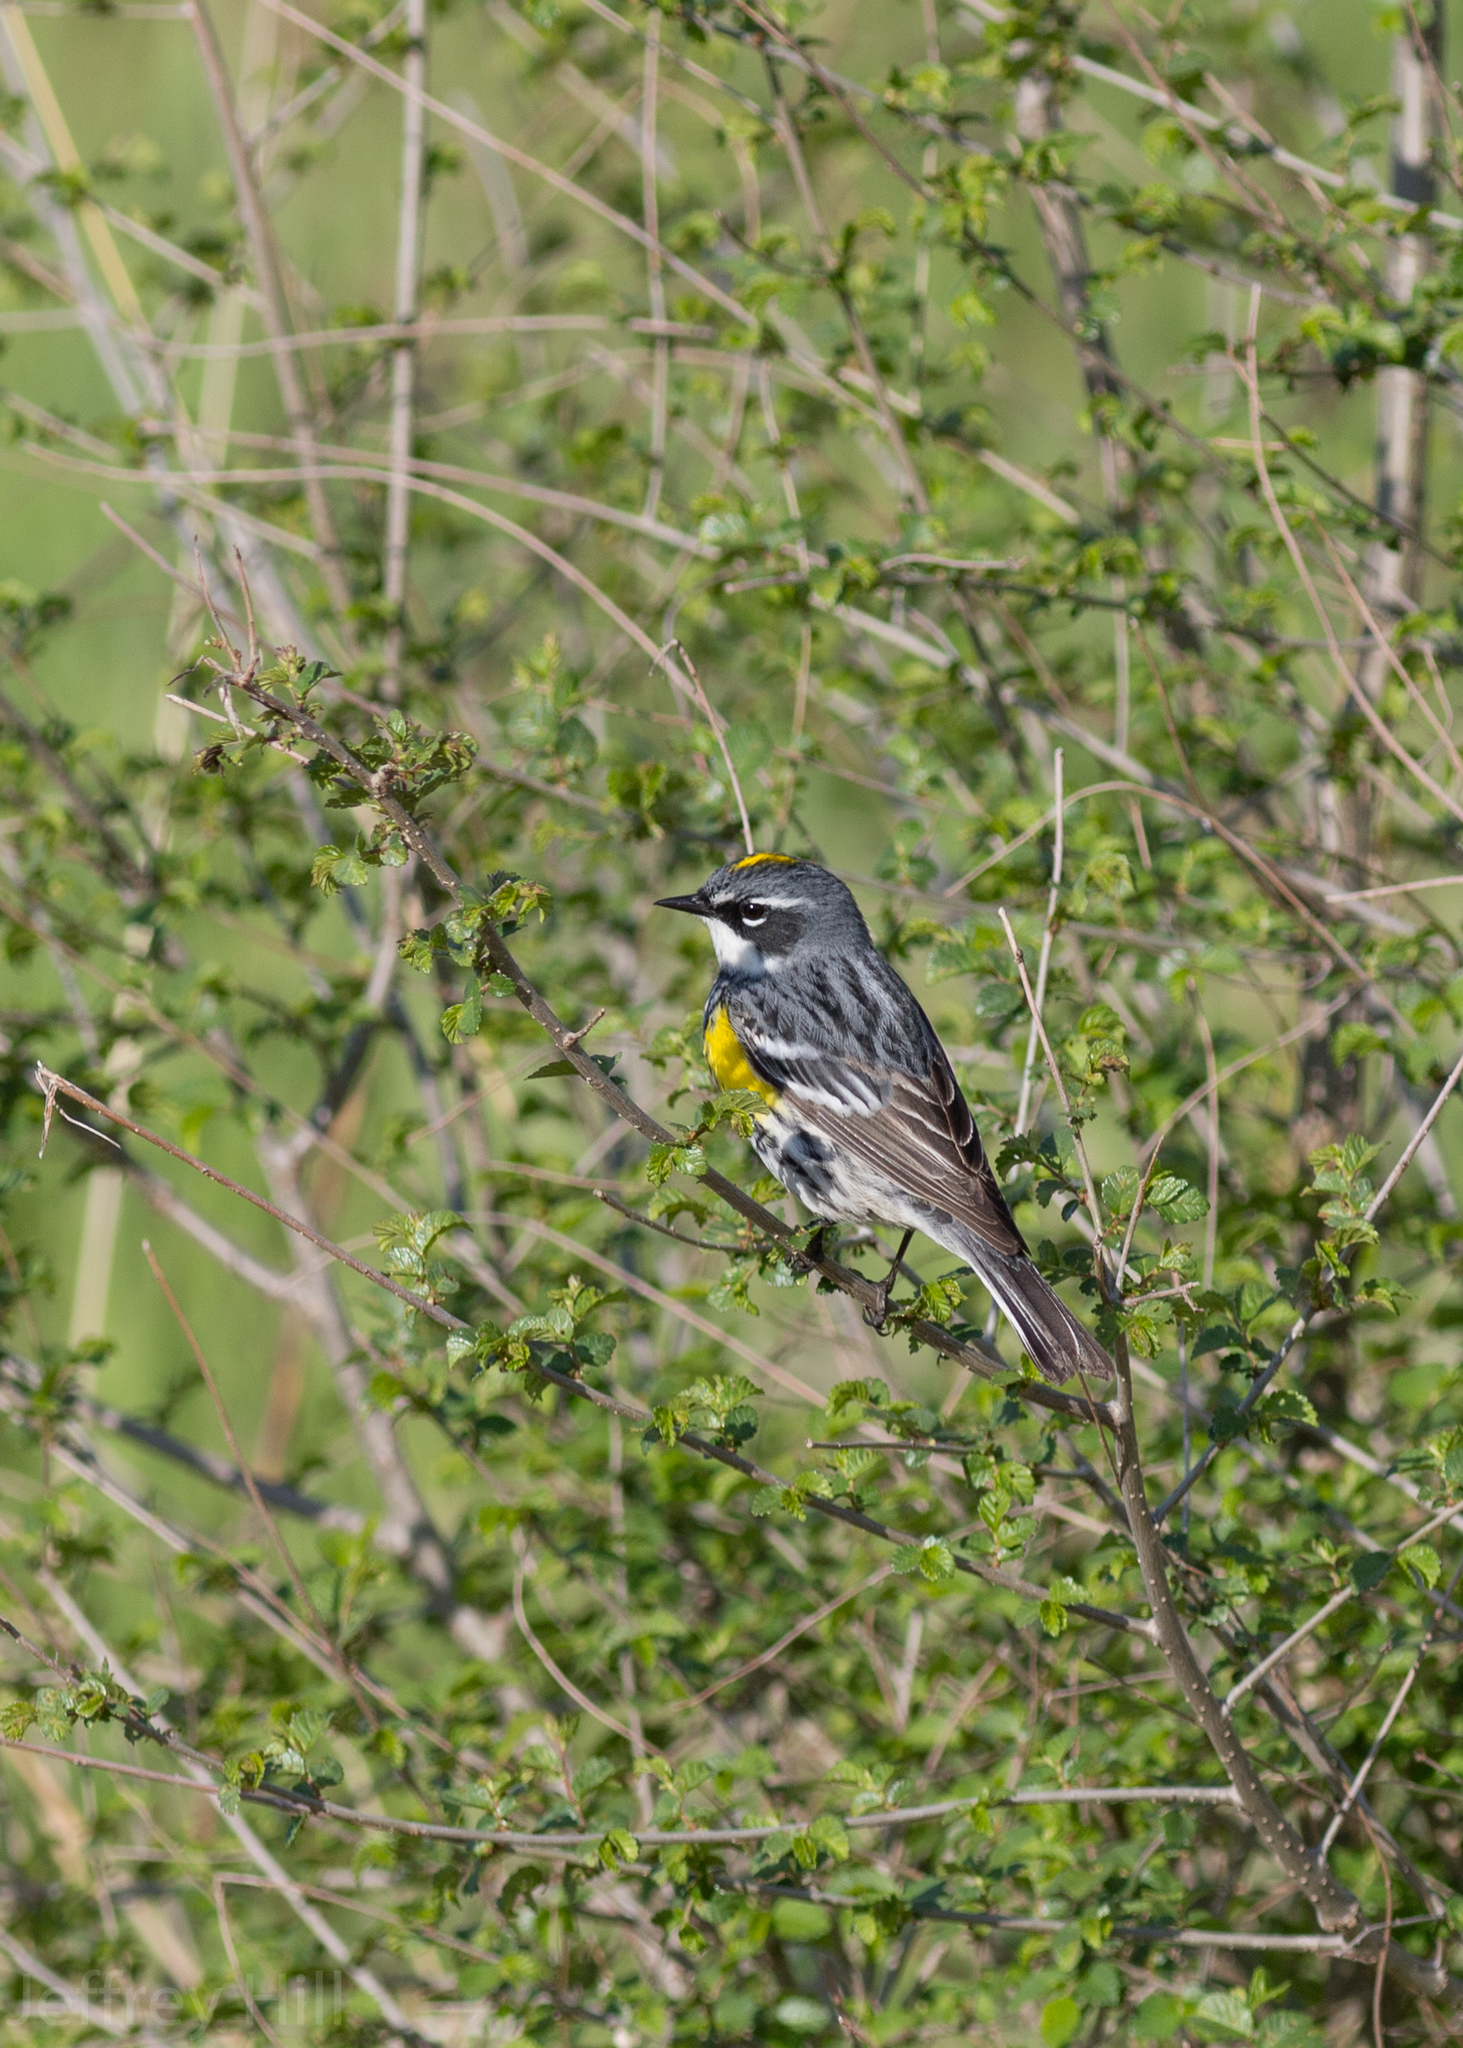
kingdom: Animalia
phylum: Chordata
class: Aves
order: Passeriformes
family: Parulidae
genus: Setophaga
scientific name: Setophaga coronata
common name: Myrtle warbler
